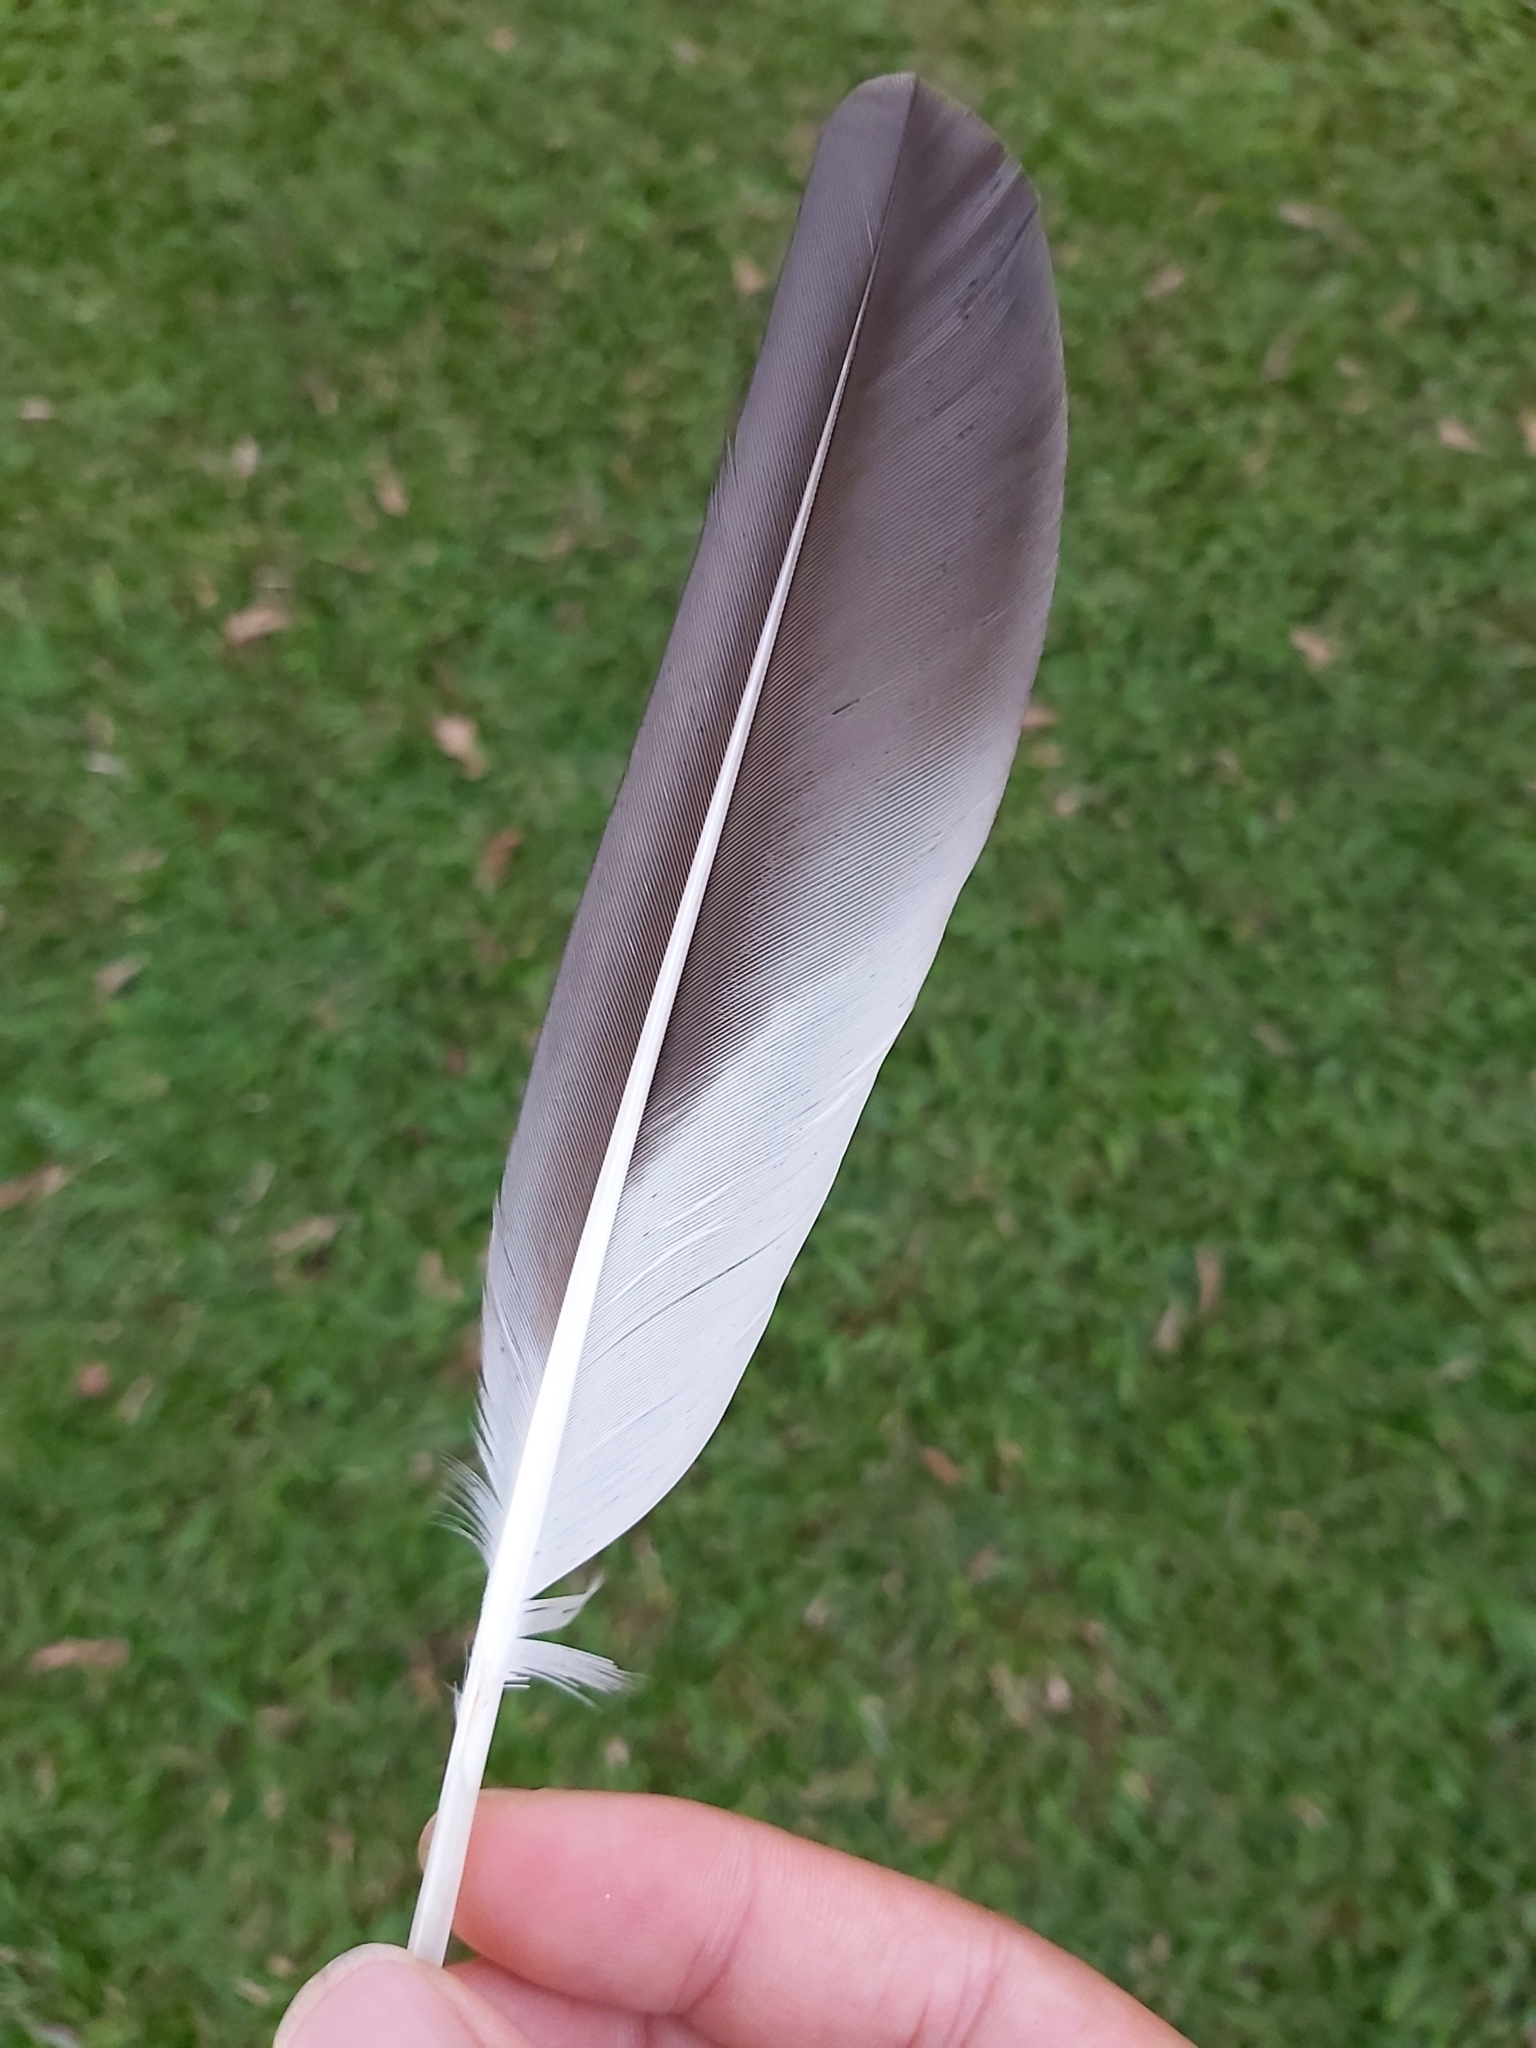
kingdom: Animalia
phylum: Chordata
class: Aves
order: Charadriiformes
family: Charadriidae
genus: Vanellus
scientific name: Vanellus miles
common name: Masked lapwing
